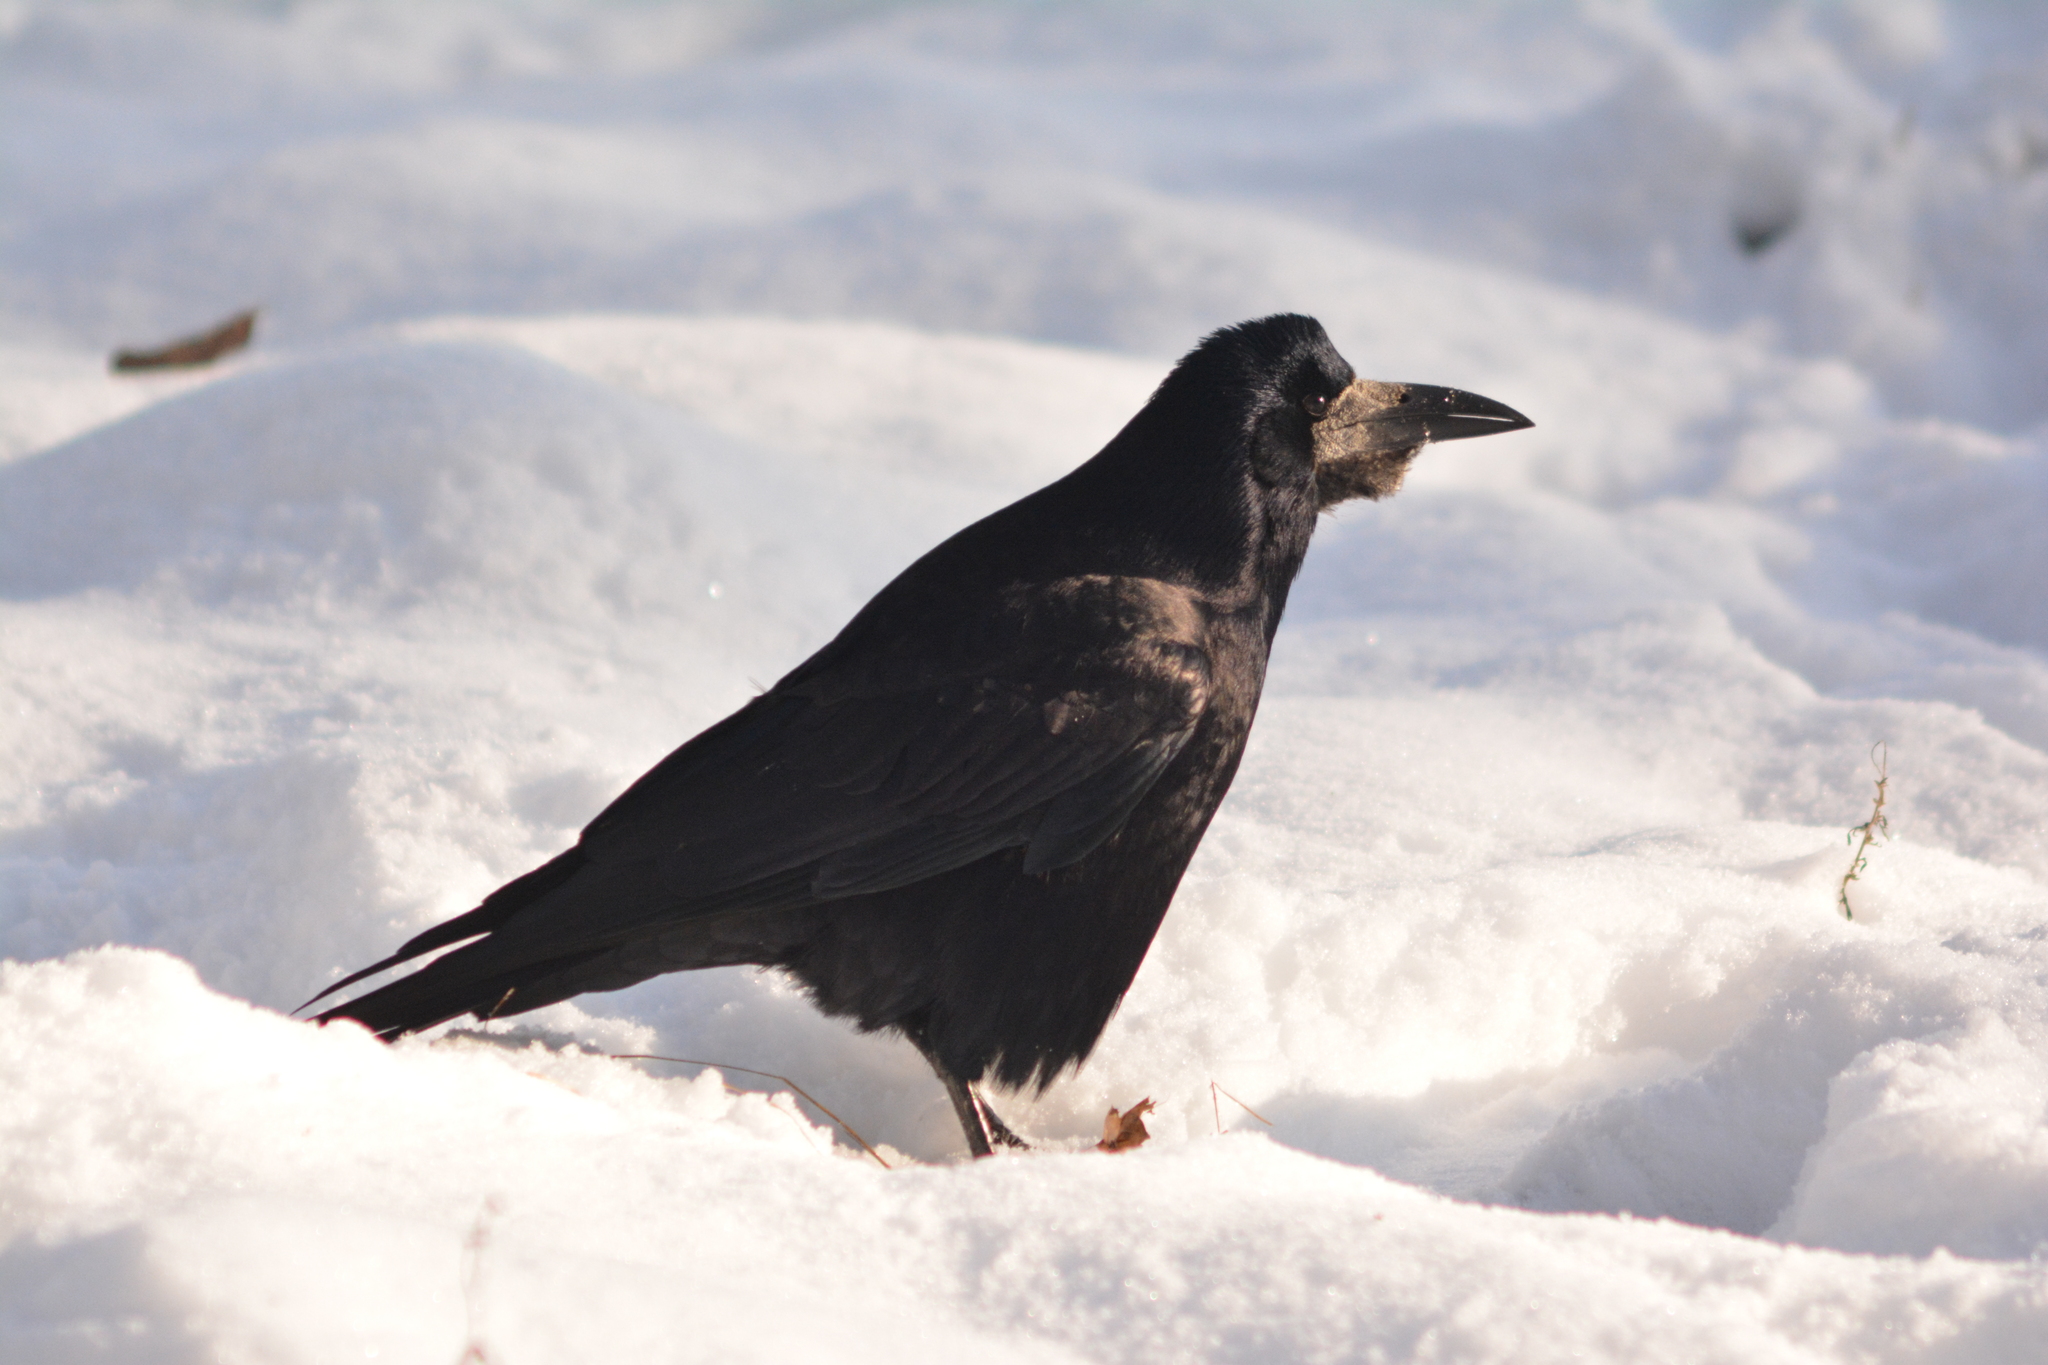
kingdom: Animalia
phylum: Chordata
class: Aves
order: Passeriformes
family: Corvidae
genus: Corvus
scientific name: Corvus frugilegus
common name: Rook
